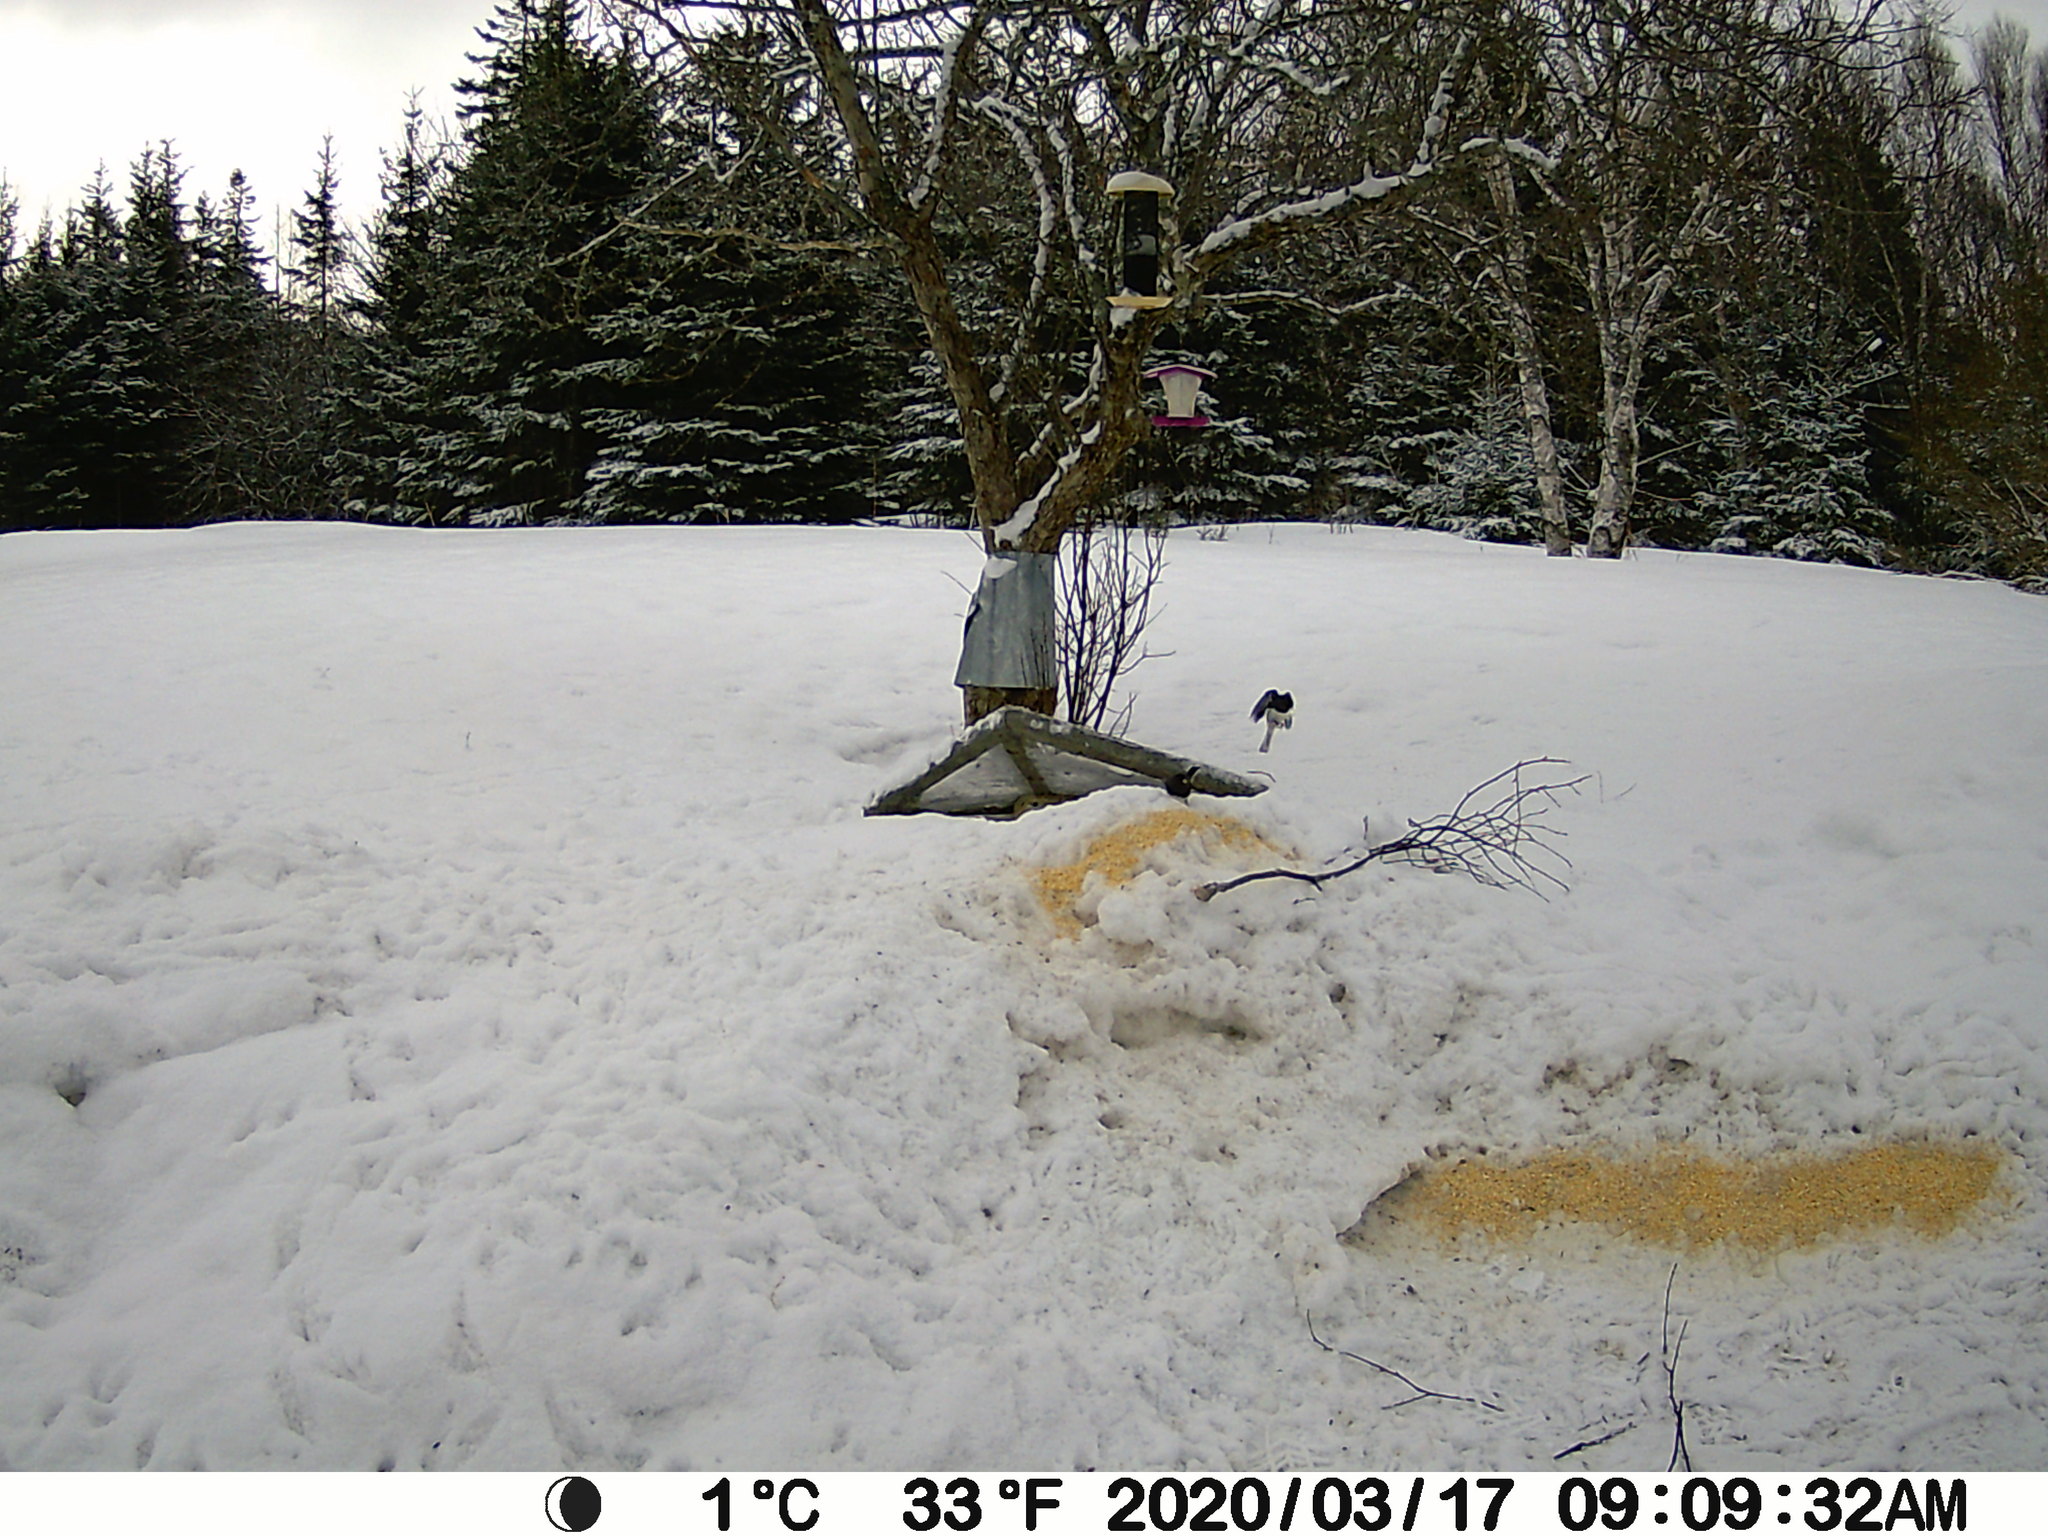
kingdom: Animalia
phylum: Chordata
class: Aves
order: Passeriformes
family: Passerellidae
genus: Junco
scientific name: Junco hyemalis
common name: Dark-eyed junco
